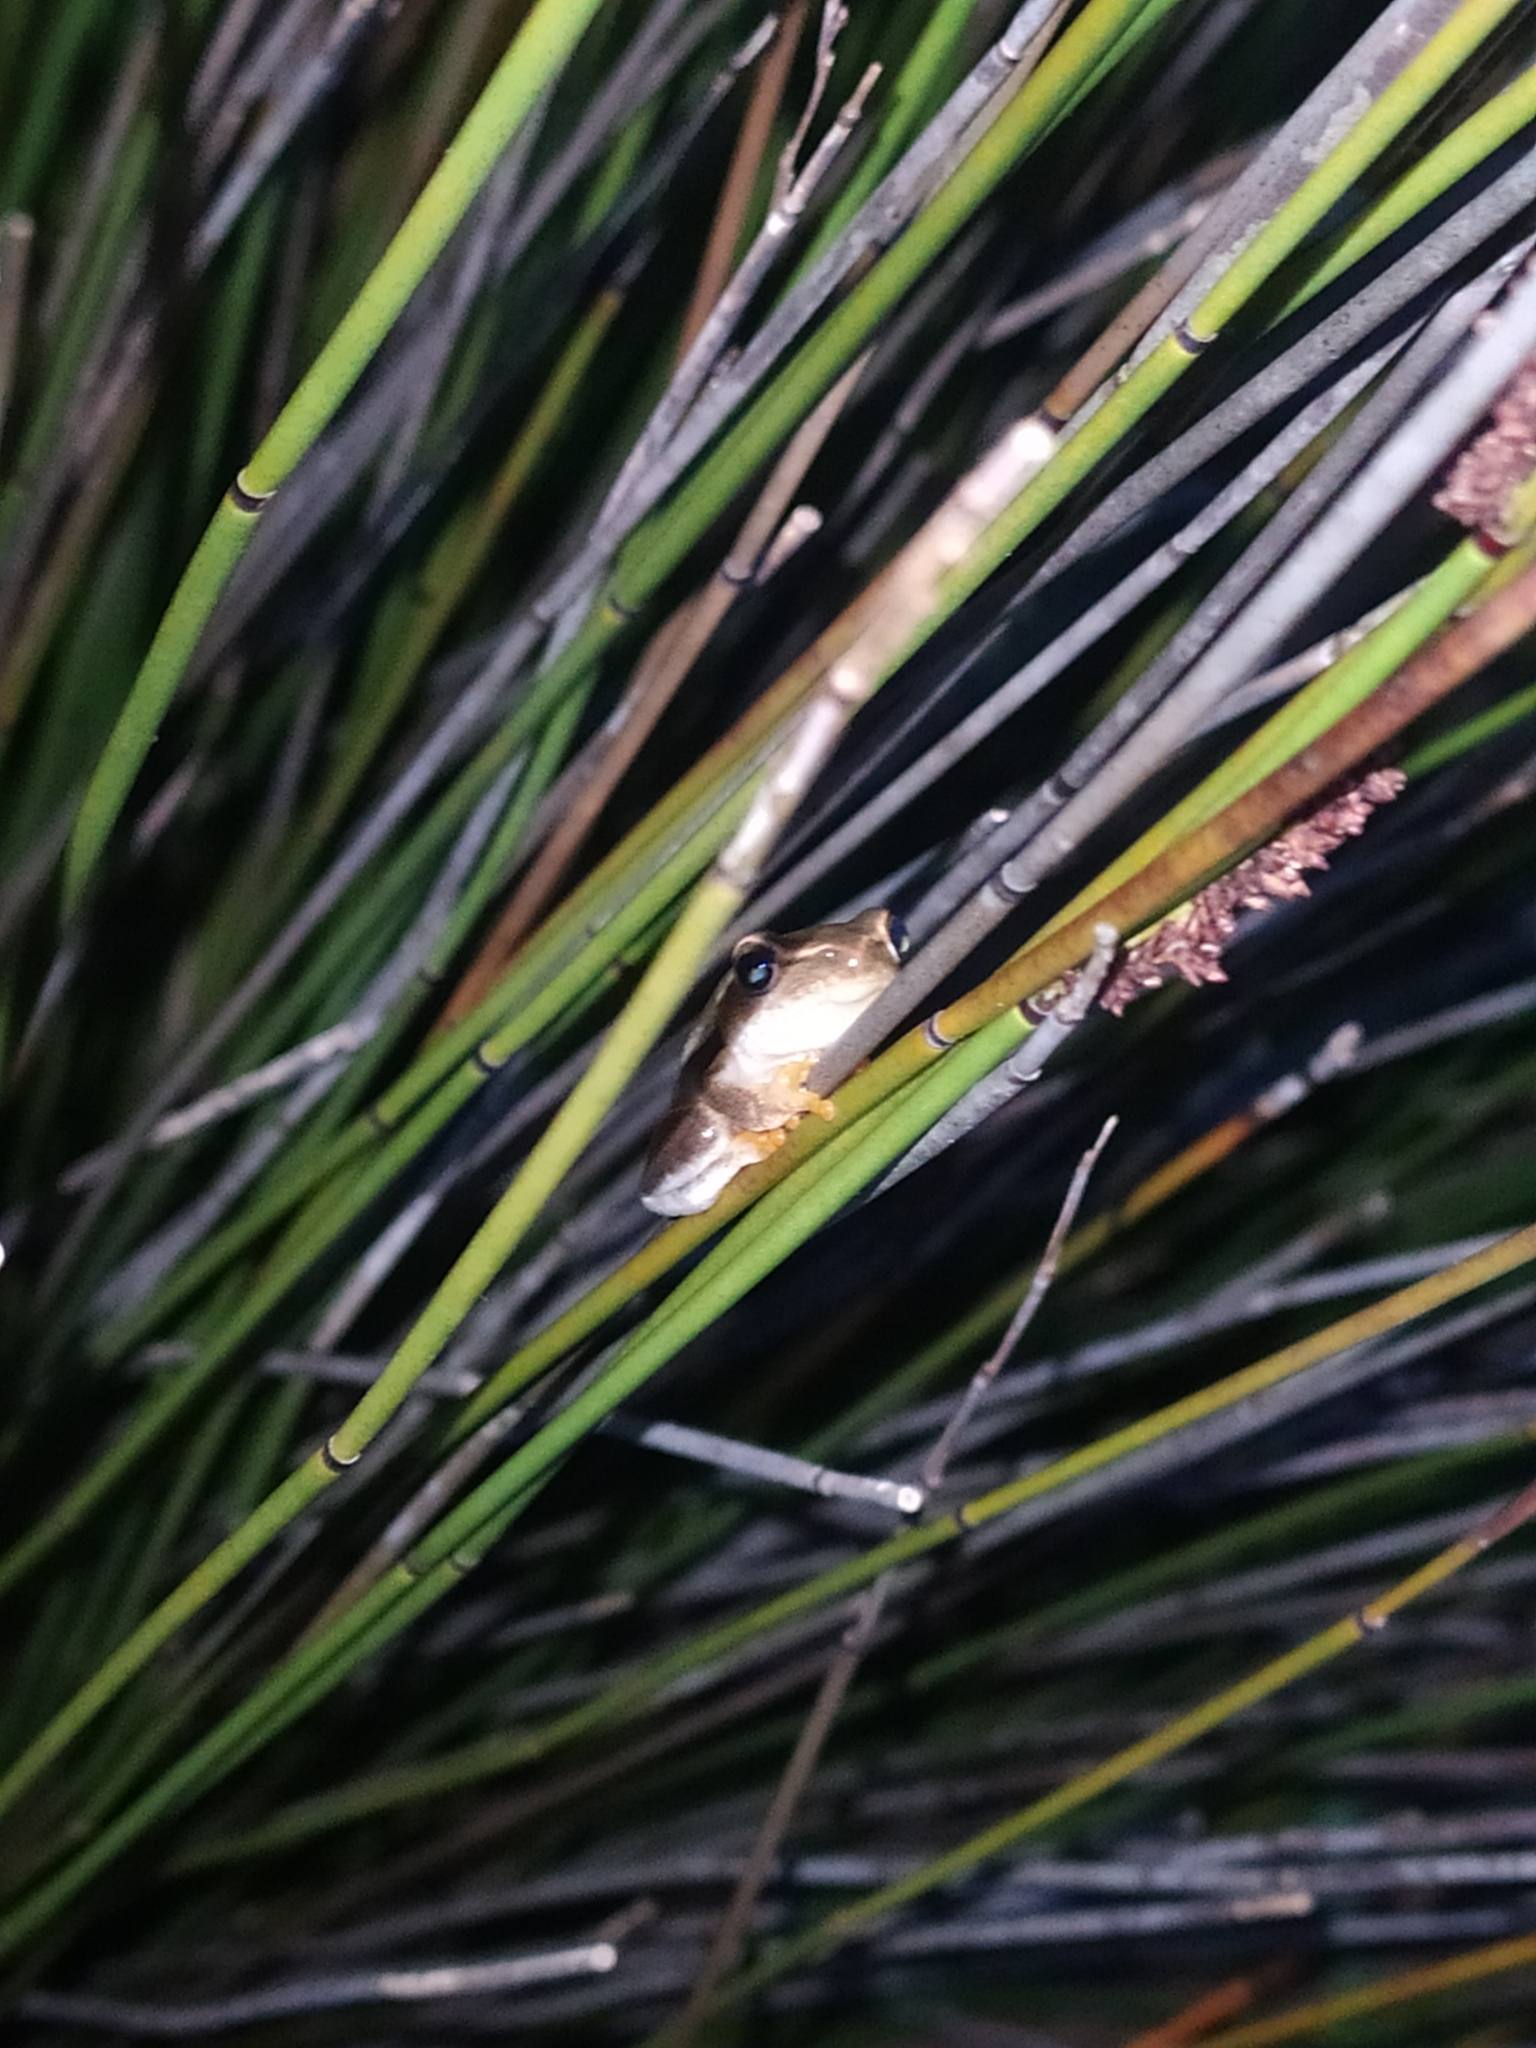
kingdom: Animalia
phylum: Chordata
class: Amphibia
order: Anura
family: Hyperoliidae
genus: Hyperolius
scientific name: Hyperolius horstockii
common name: Arum lily frog
